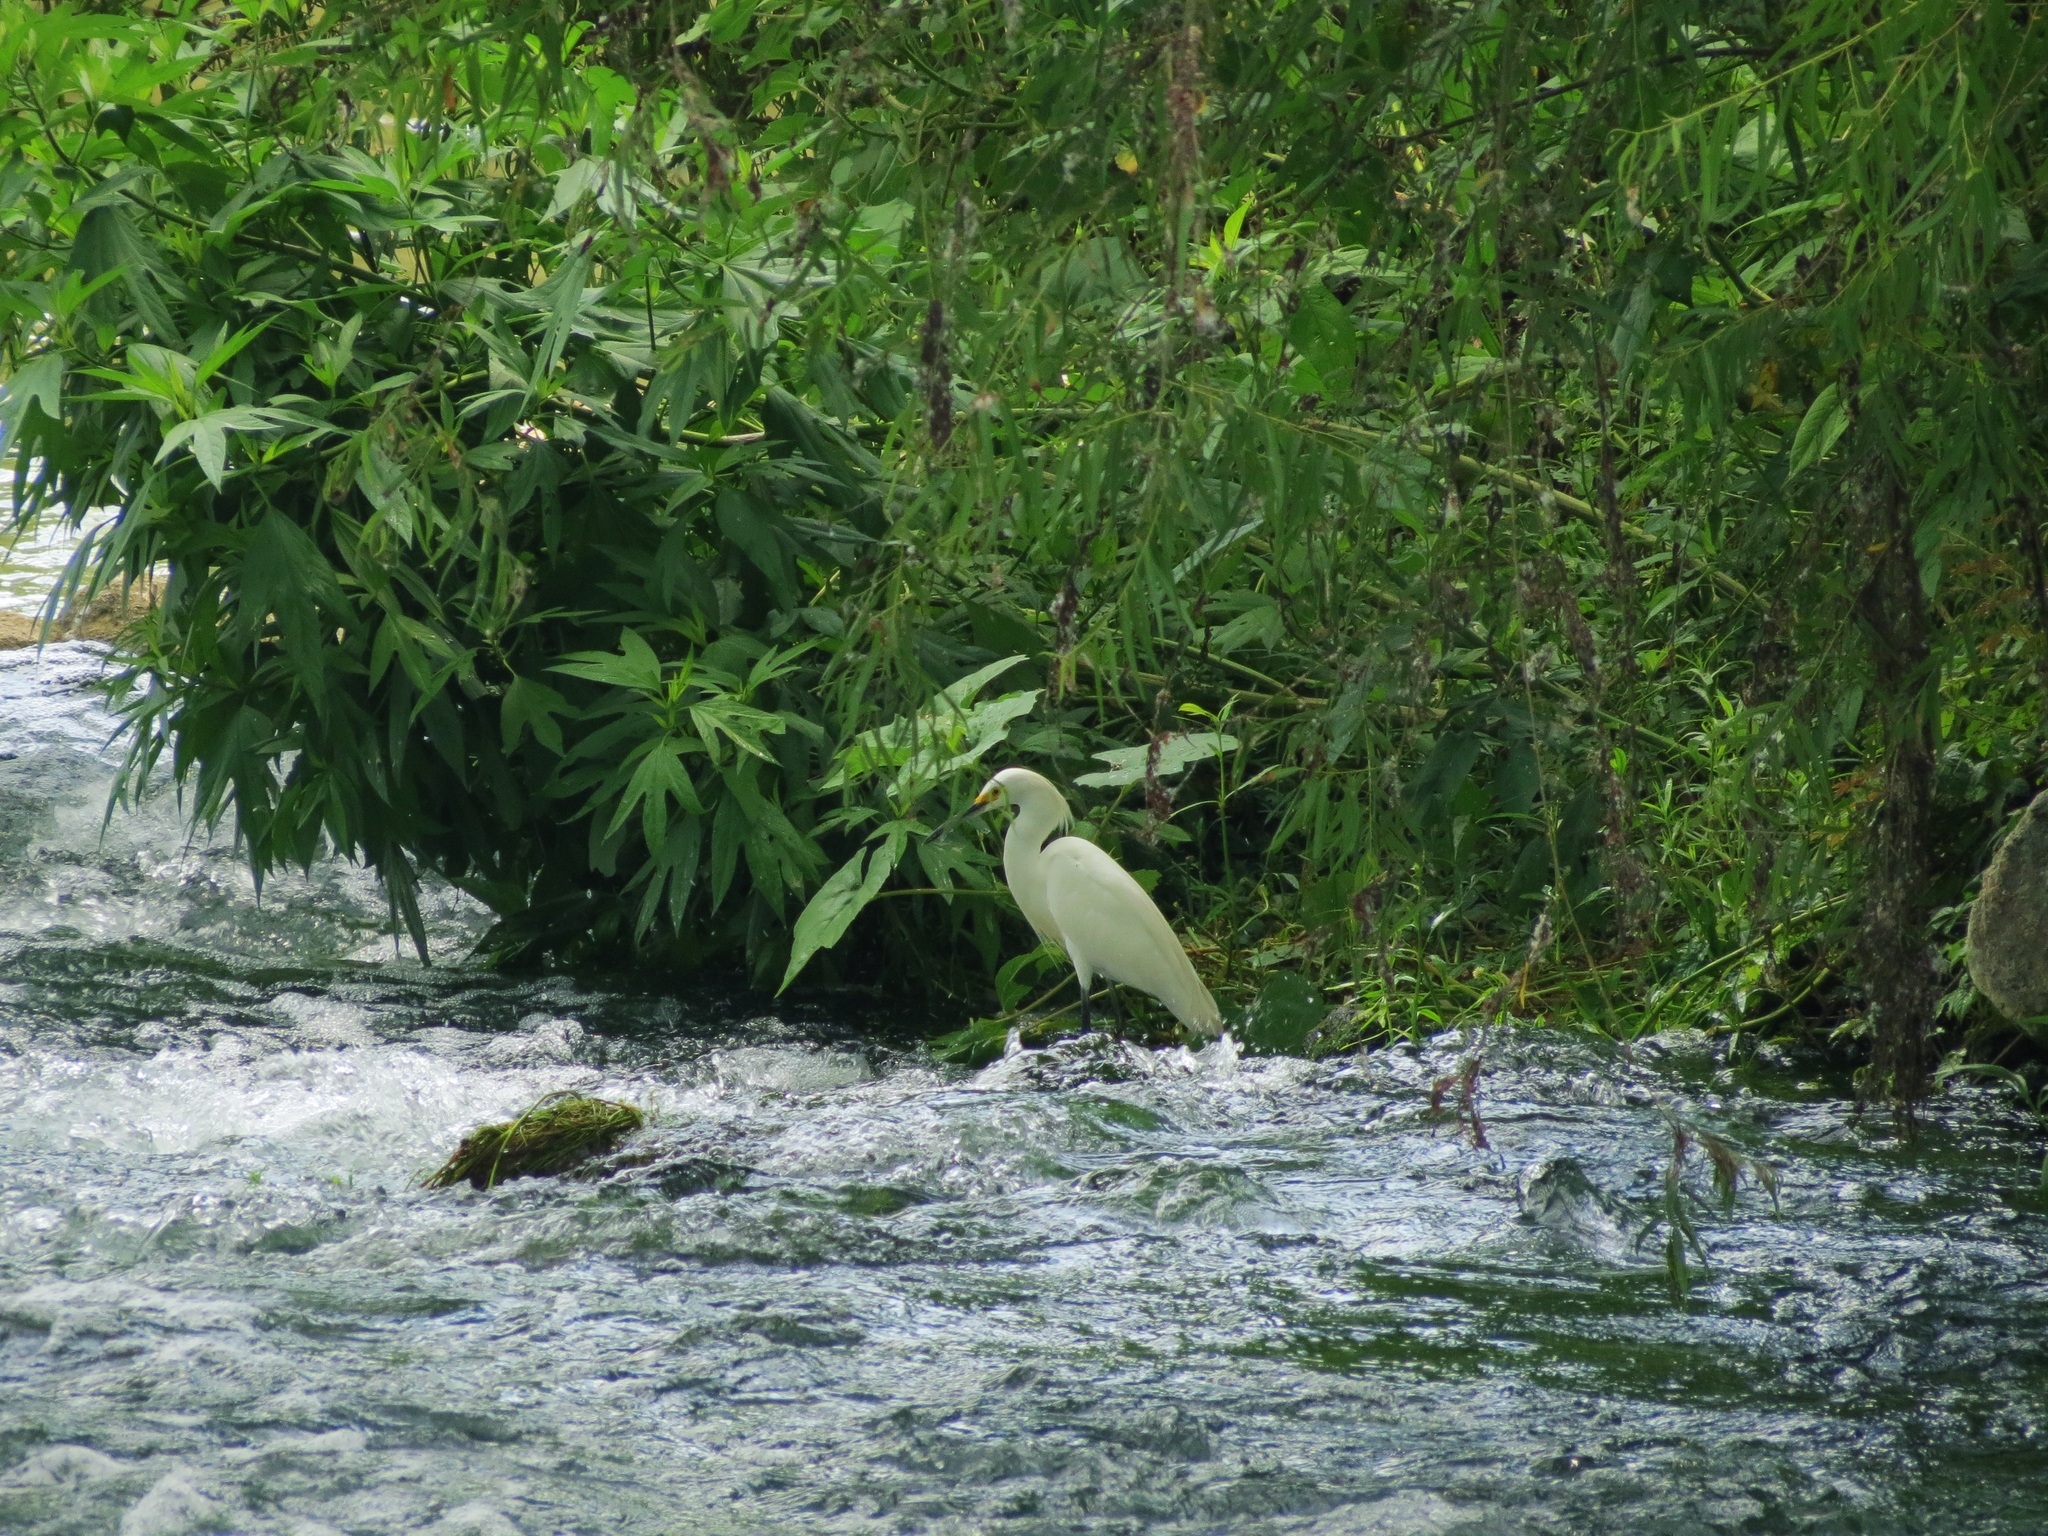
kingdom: Animalia
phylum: Chordata
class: Aves
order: Pelecaniformes
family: Ardeidae
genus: Egretta
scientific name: Egretta thula
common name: Snowy egret
